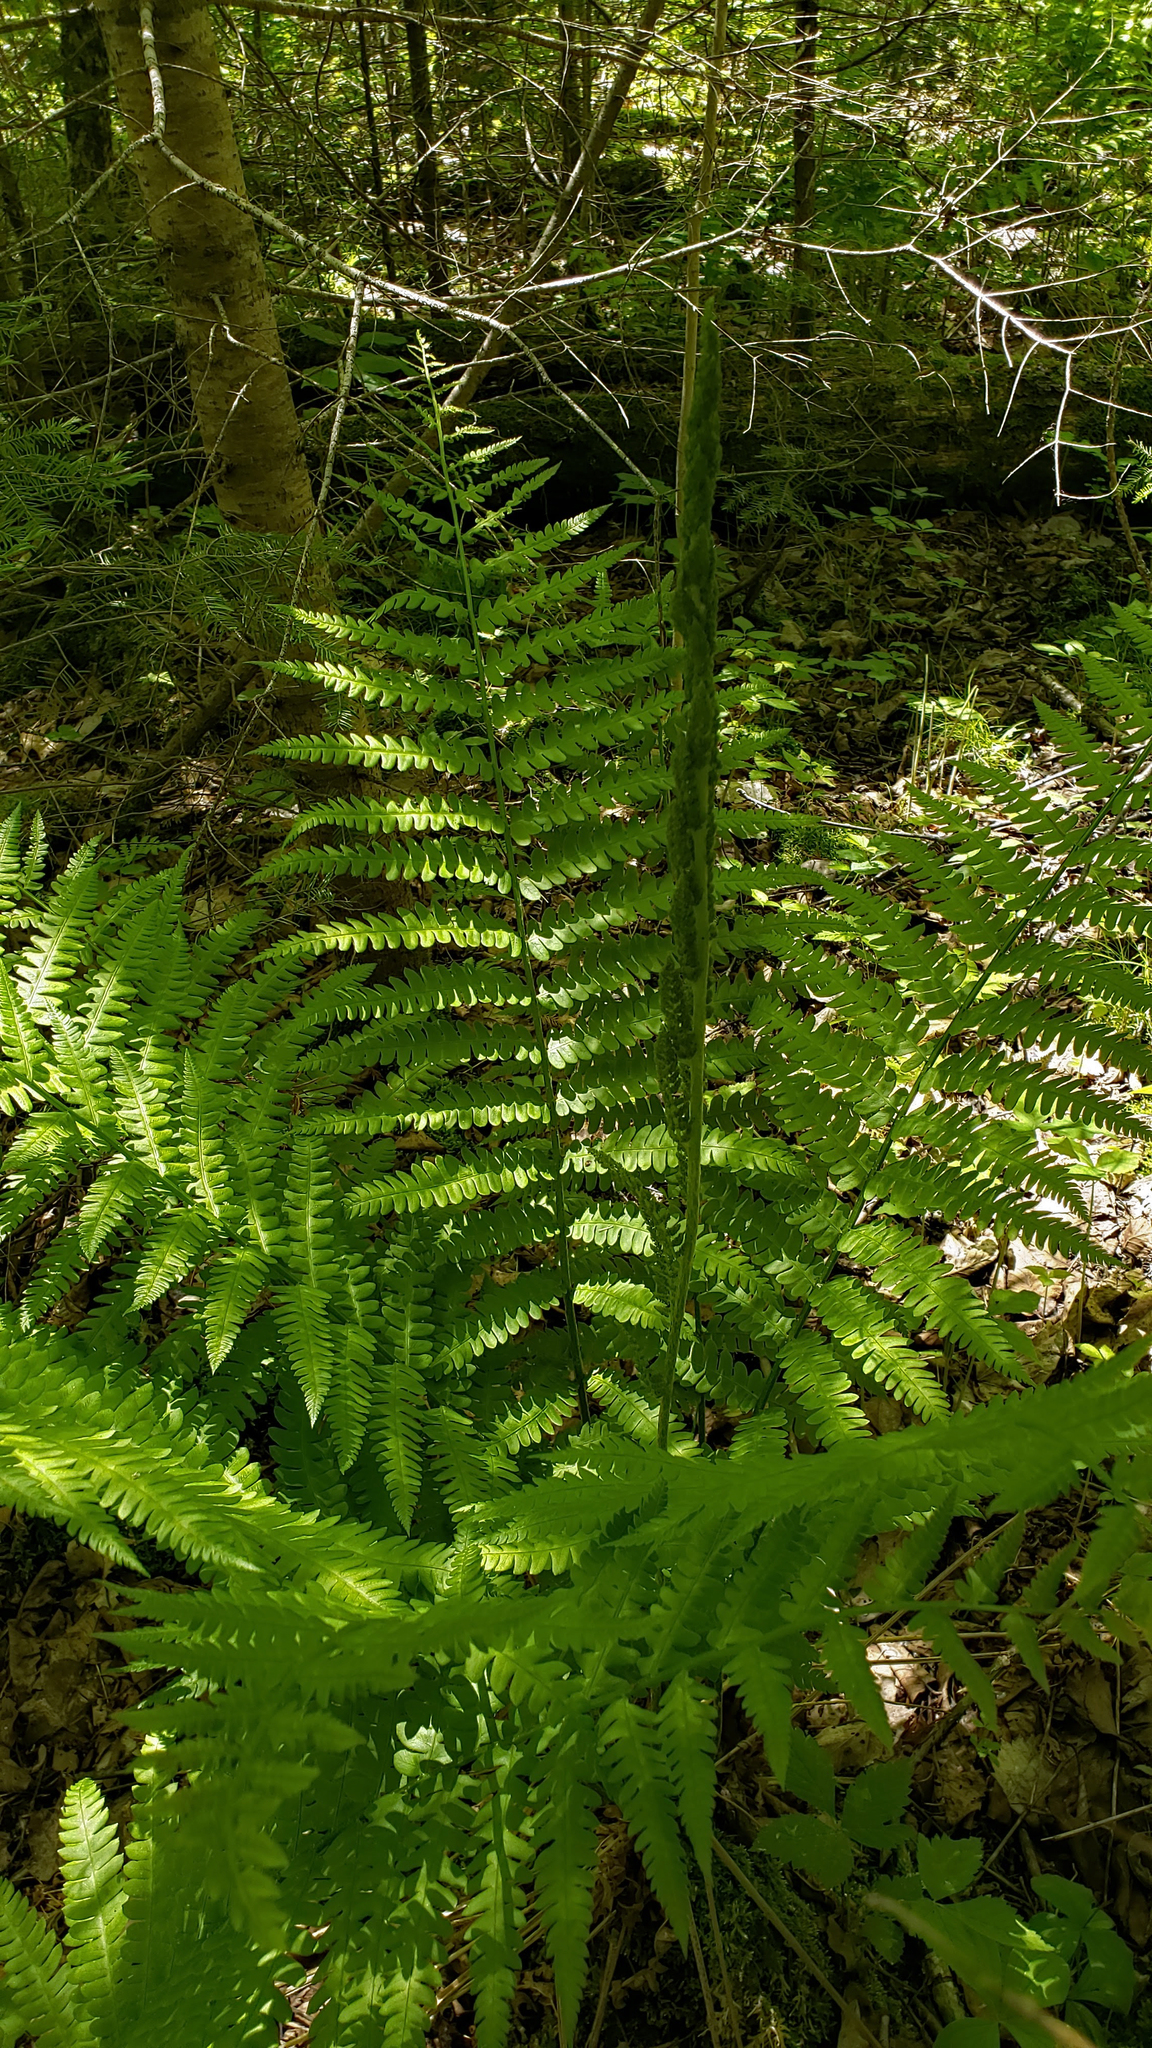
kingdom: Plantae
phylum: Tracheophyta
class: Polypodiopsida
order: Osmundales
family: Osmundaceae
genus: Osmundastrum
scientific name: Osmundastrum cinnamomeum
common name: Cinnamon fern
